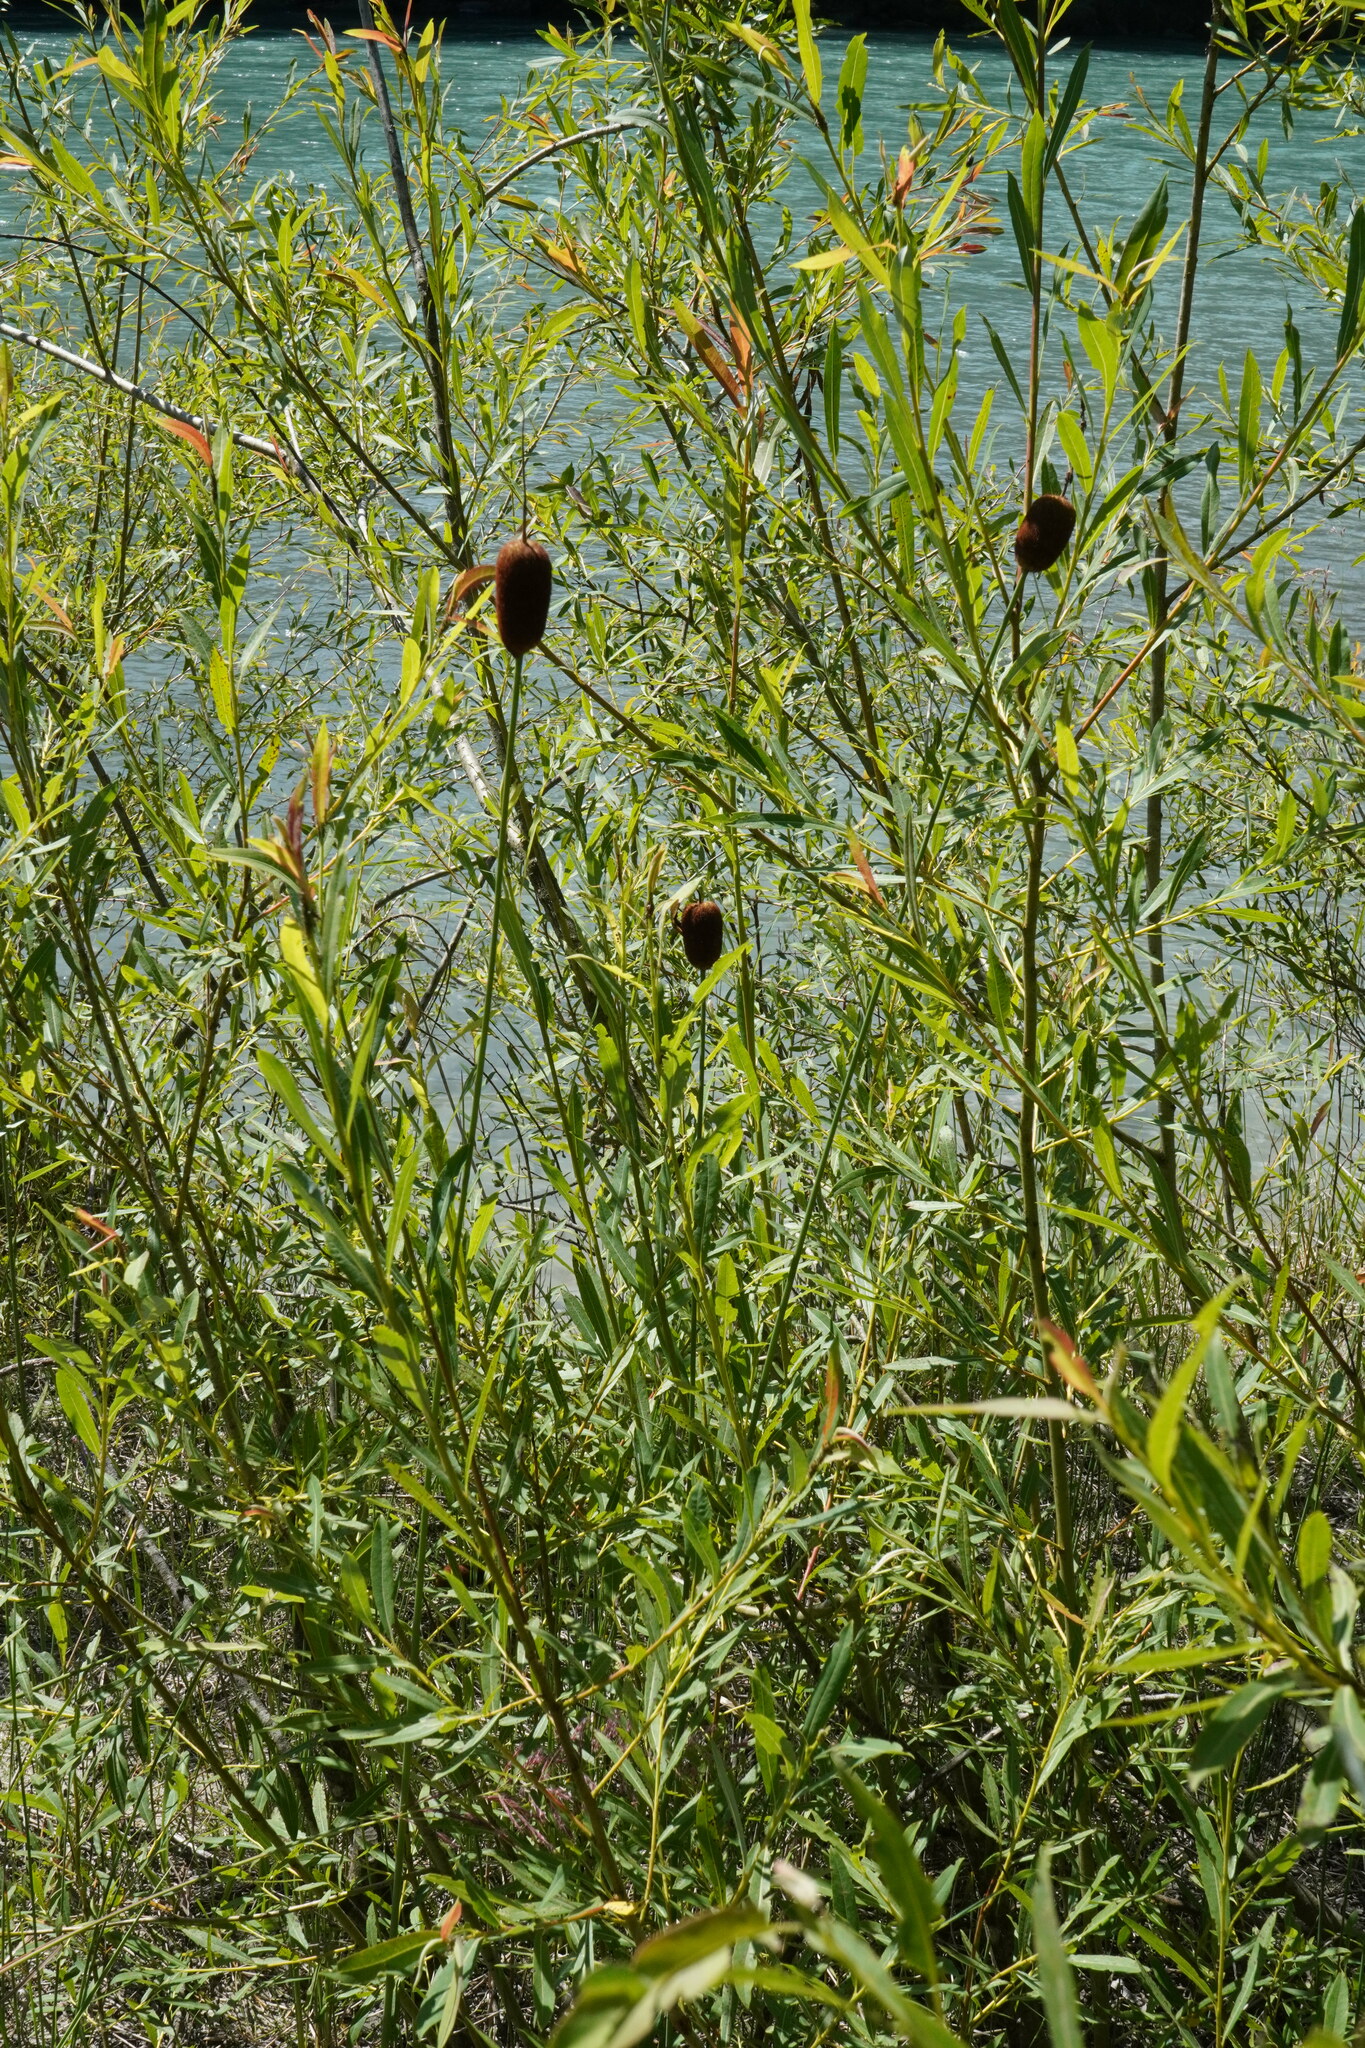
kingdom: Plantae
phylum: Tracheophyta
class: Liliopsida
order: Poales
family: Typhaceae
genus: Typha
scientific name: Typha minima
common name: Dwarf bulrush
